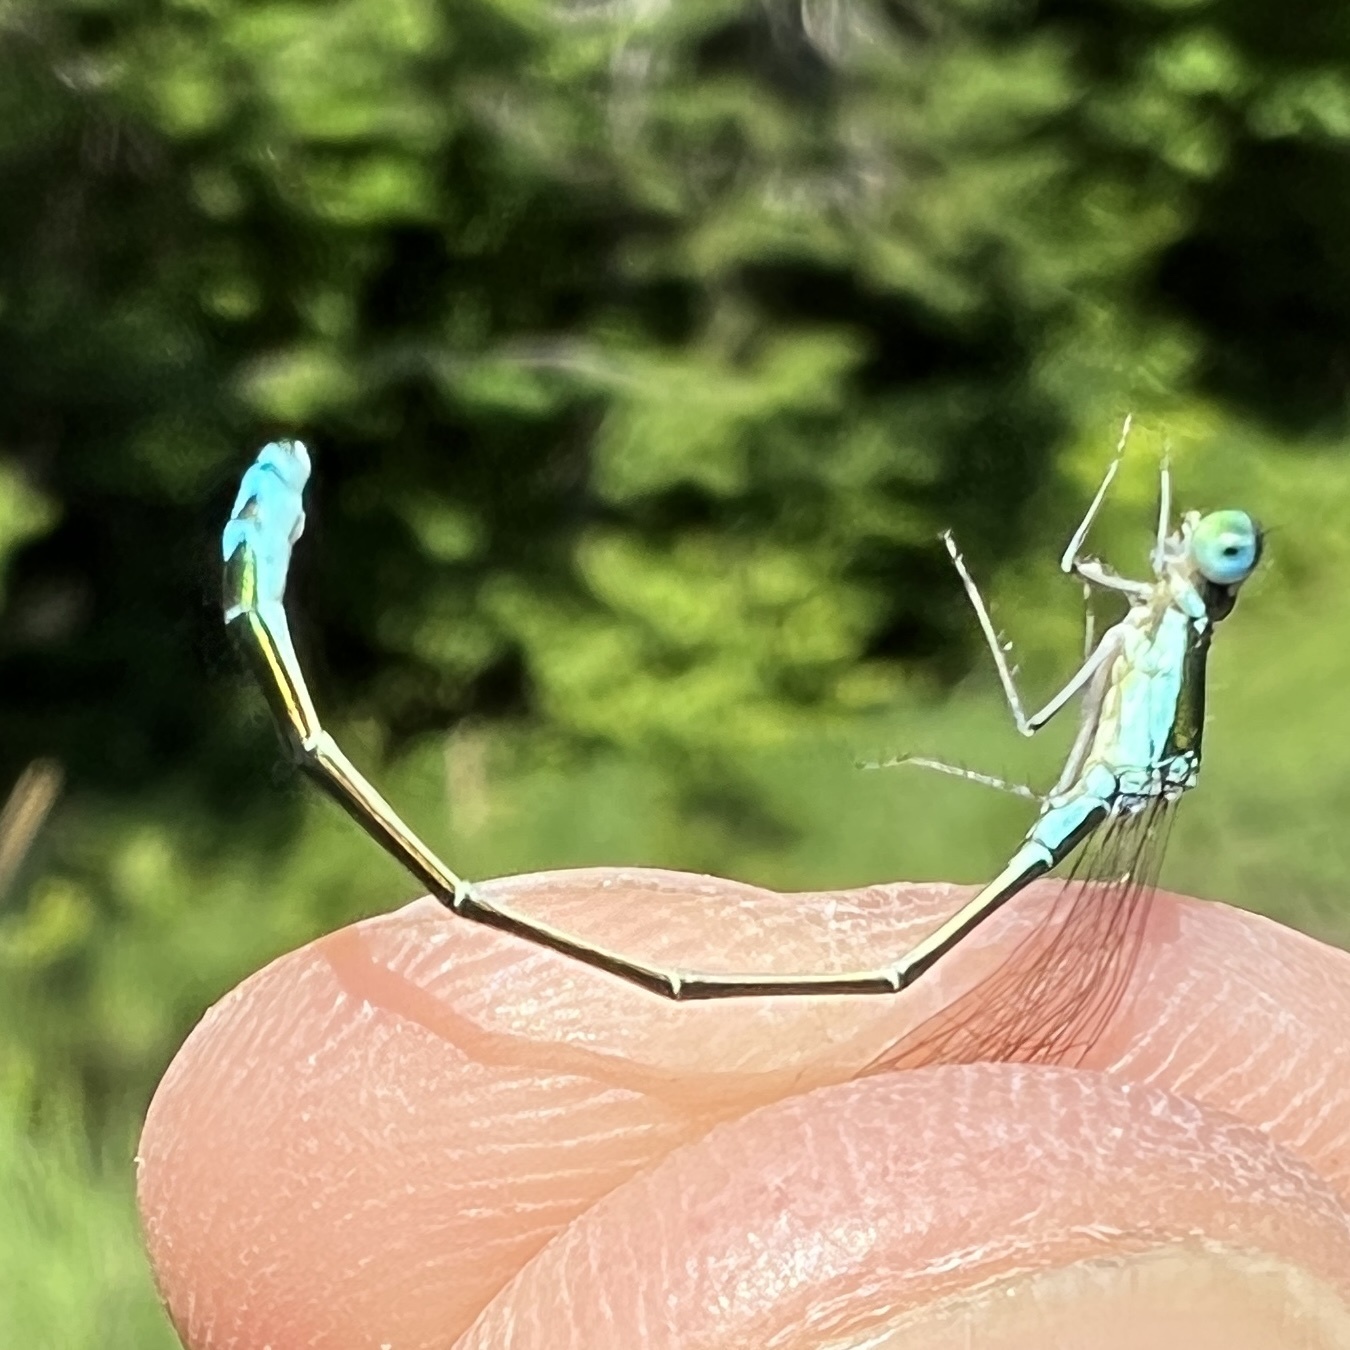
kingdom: Animalia
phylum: Arthropoda
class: Insecta
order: Odonata
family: Coenagrionidae
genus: Nehalennia
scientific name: Nehalennia irene
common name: Sedge sprite
